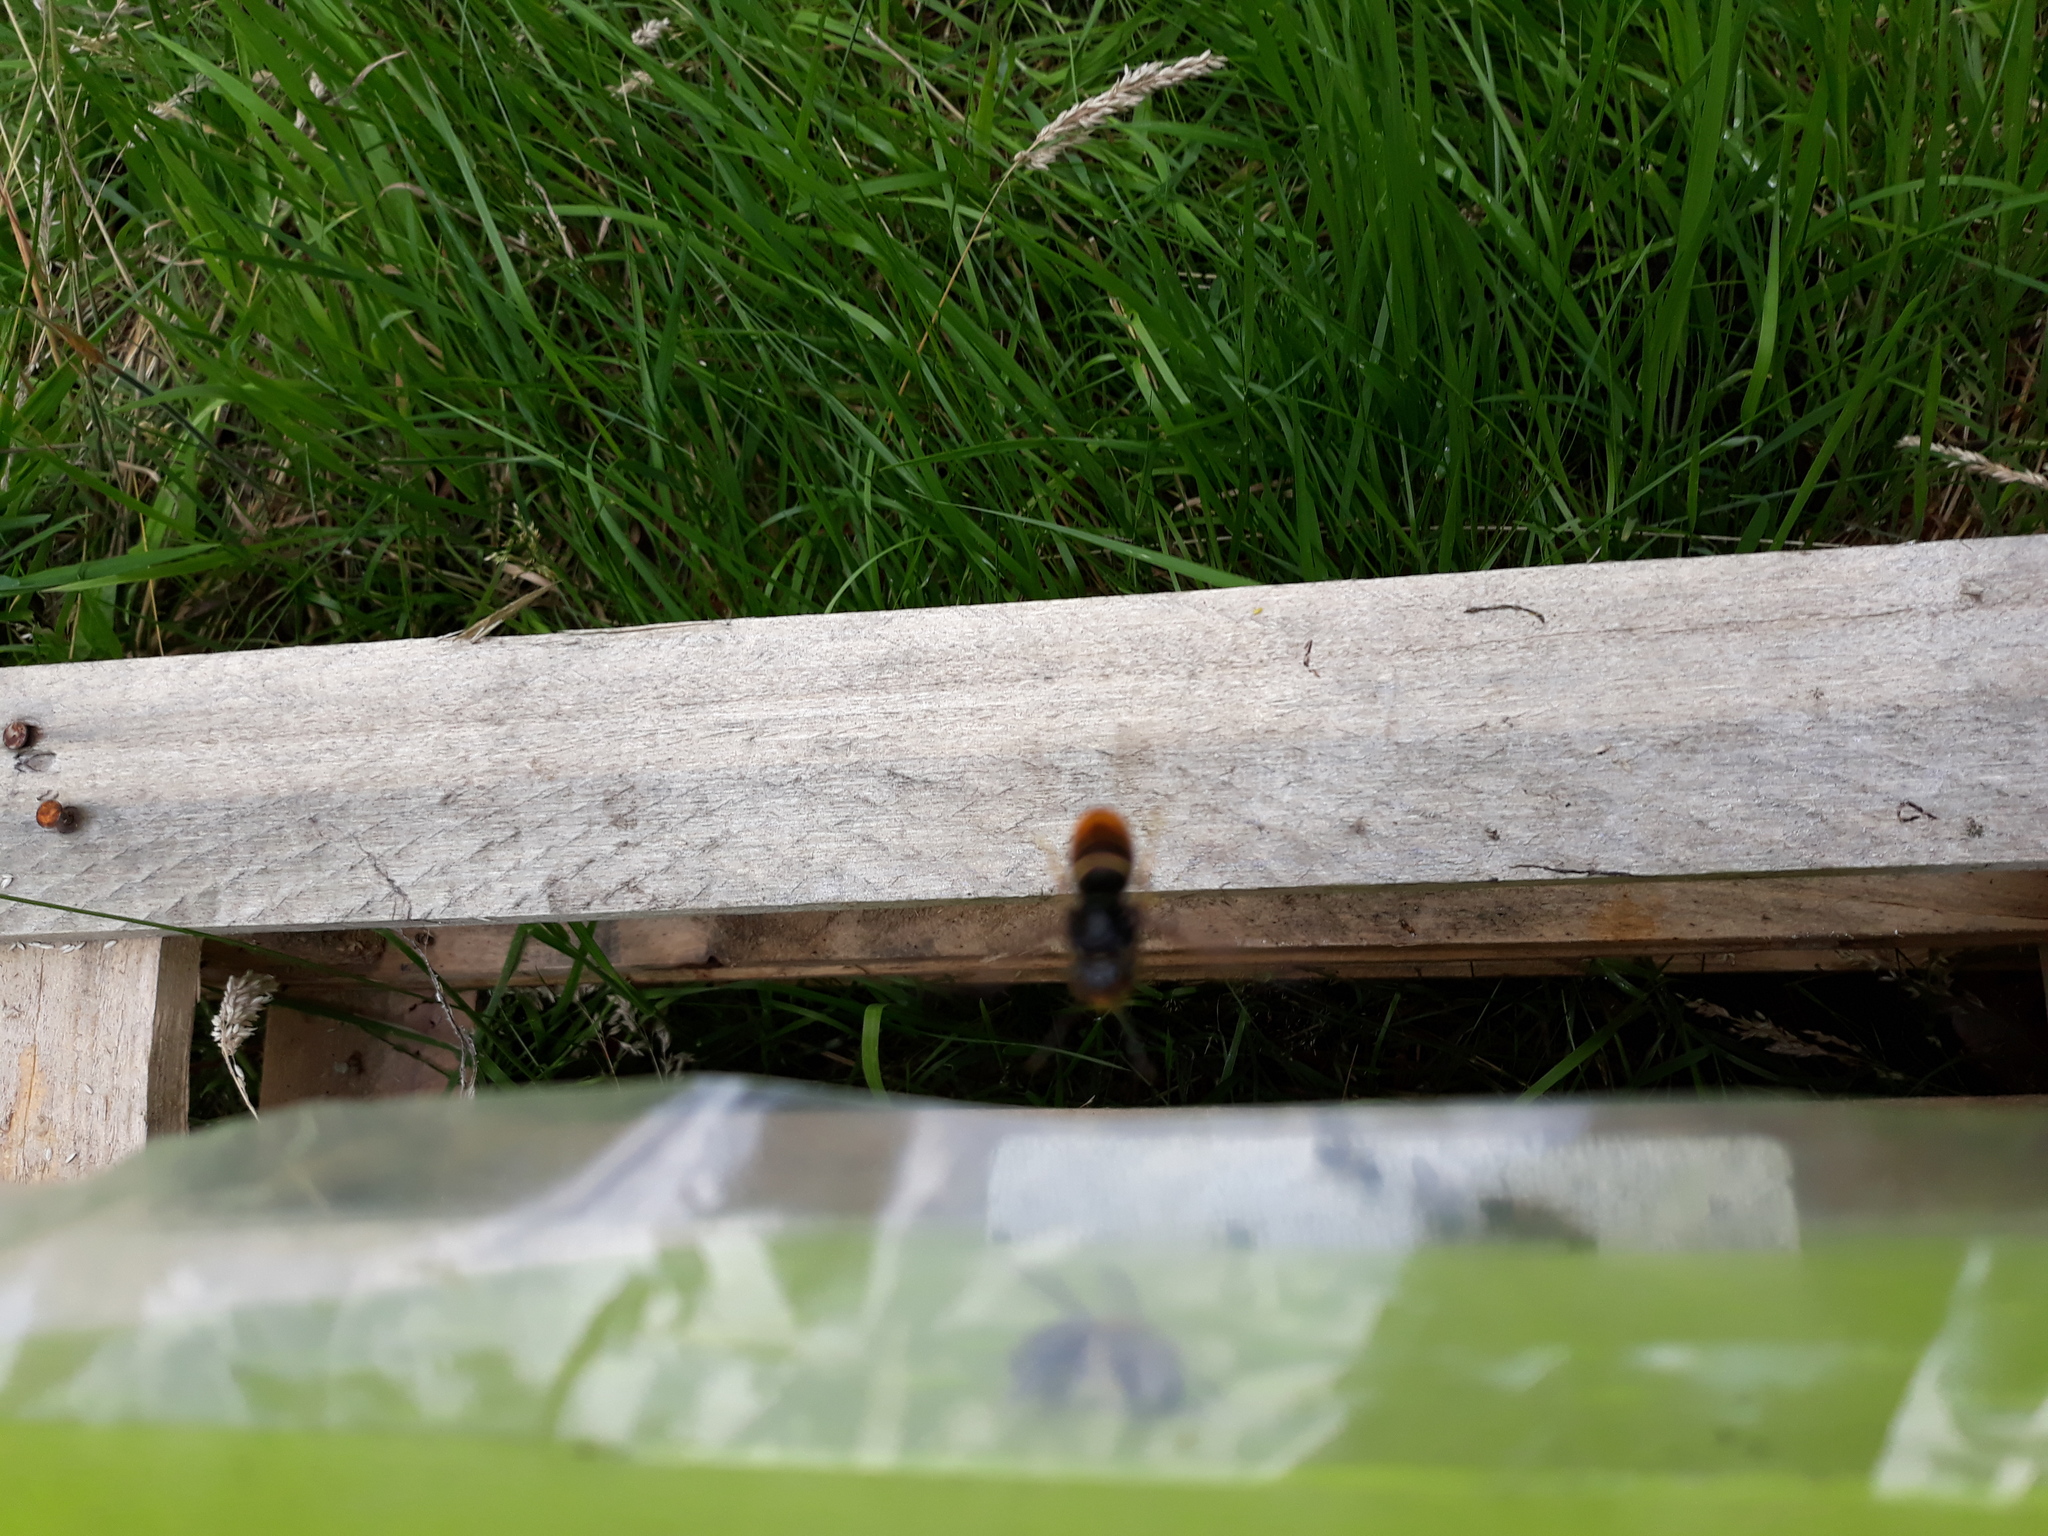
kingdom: Animalia
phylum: Arthropoda
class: Insecta
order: Hymenoptera
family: Vespidae
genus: Vespa
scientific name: Vespa velutina
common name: Asian hornet
